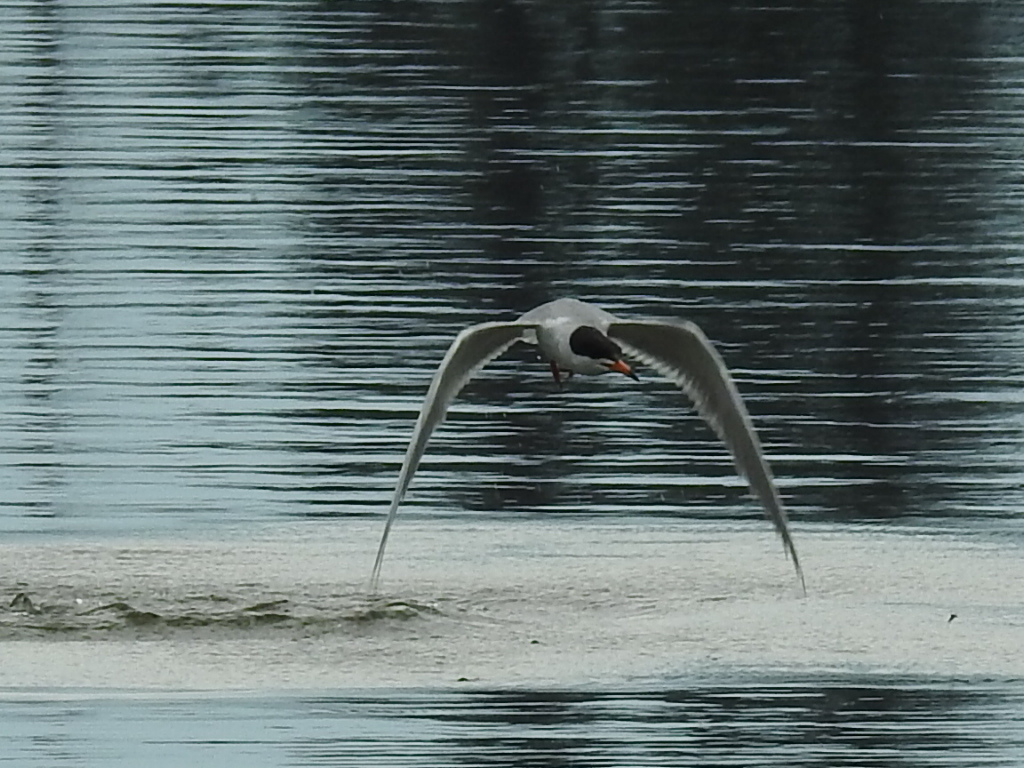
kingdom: Animalia
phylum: Chordata
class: Aves
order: Charadriiformes
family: Laridae
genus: Sterna
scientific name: Sterna forsteri
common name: Forster's tern
